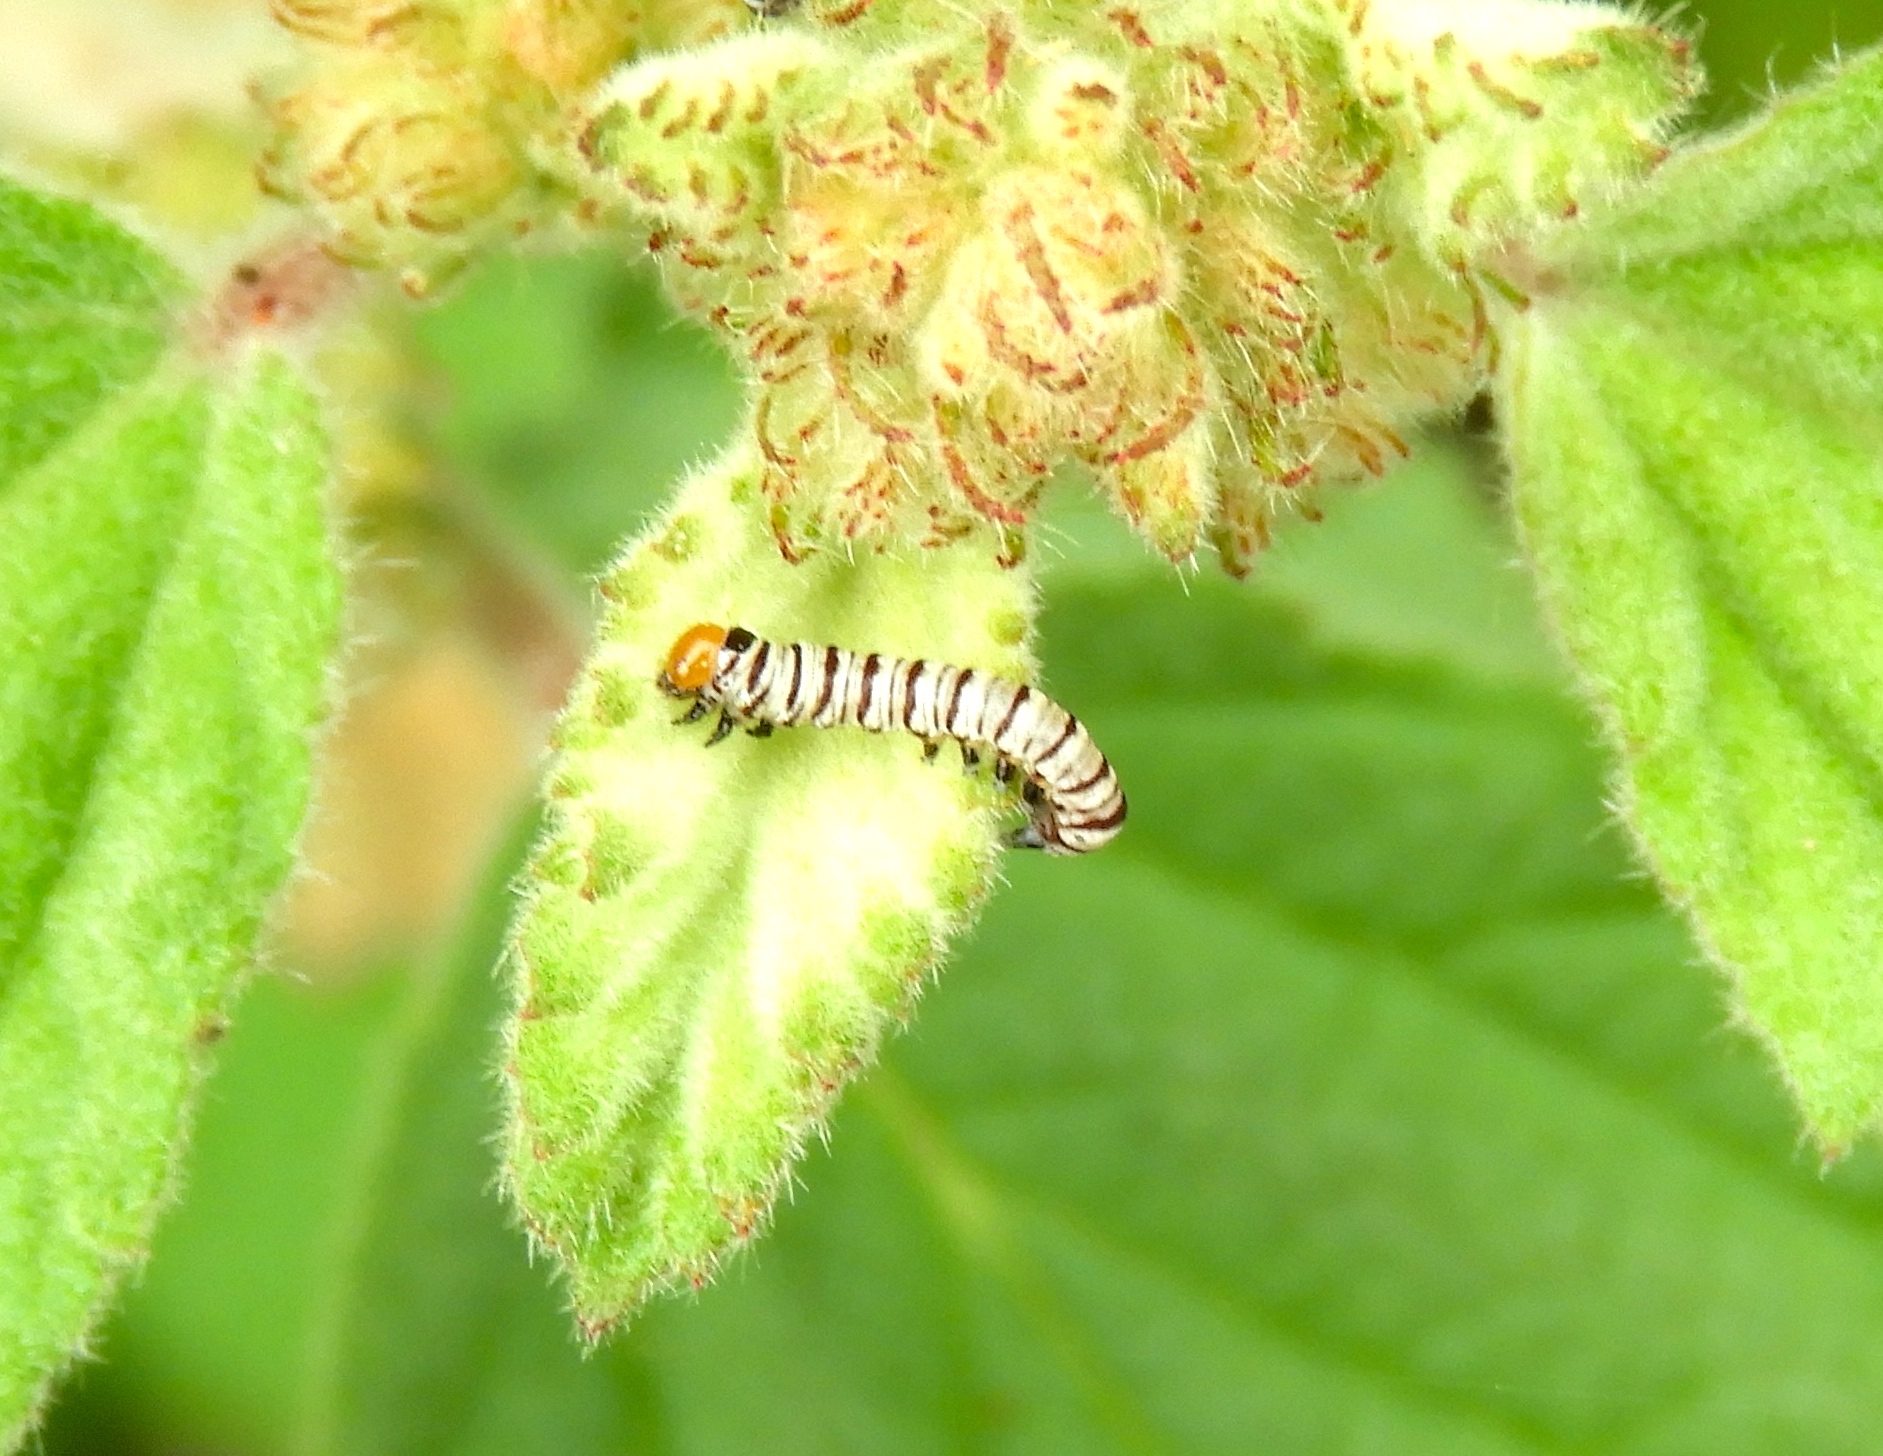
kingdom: Animalia
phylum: Arthropoda
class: Insecta
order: Lepidoptera
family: Erebidae
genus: Diphthera
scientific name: Diphthera festiva
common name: Hieroglyphic moth
